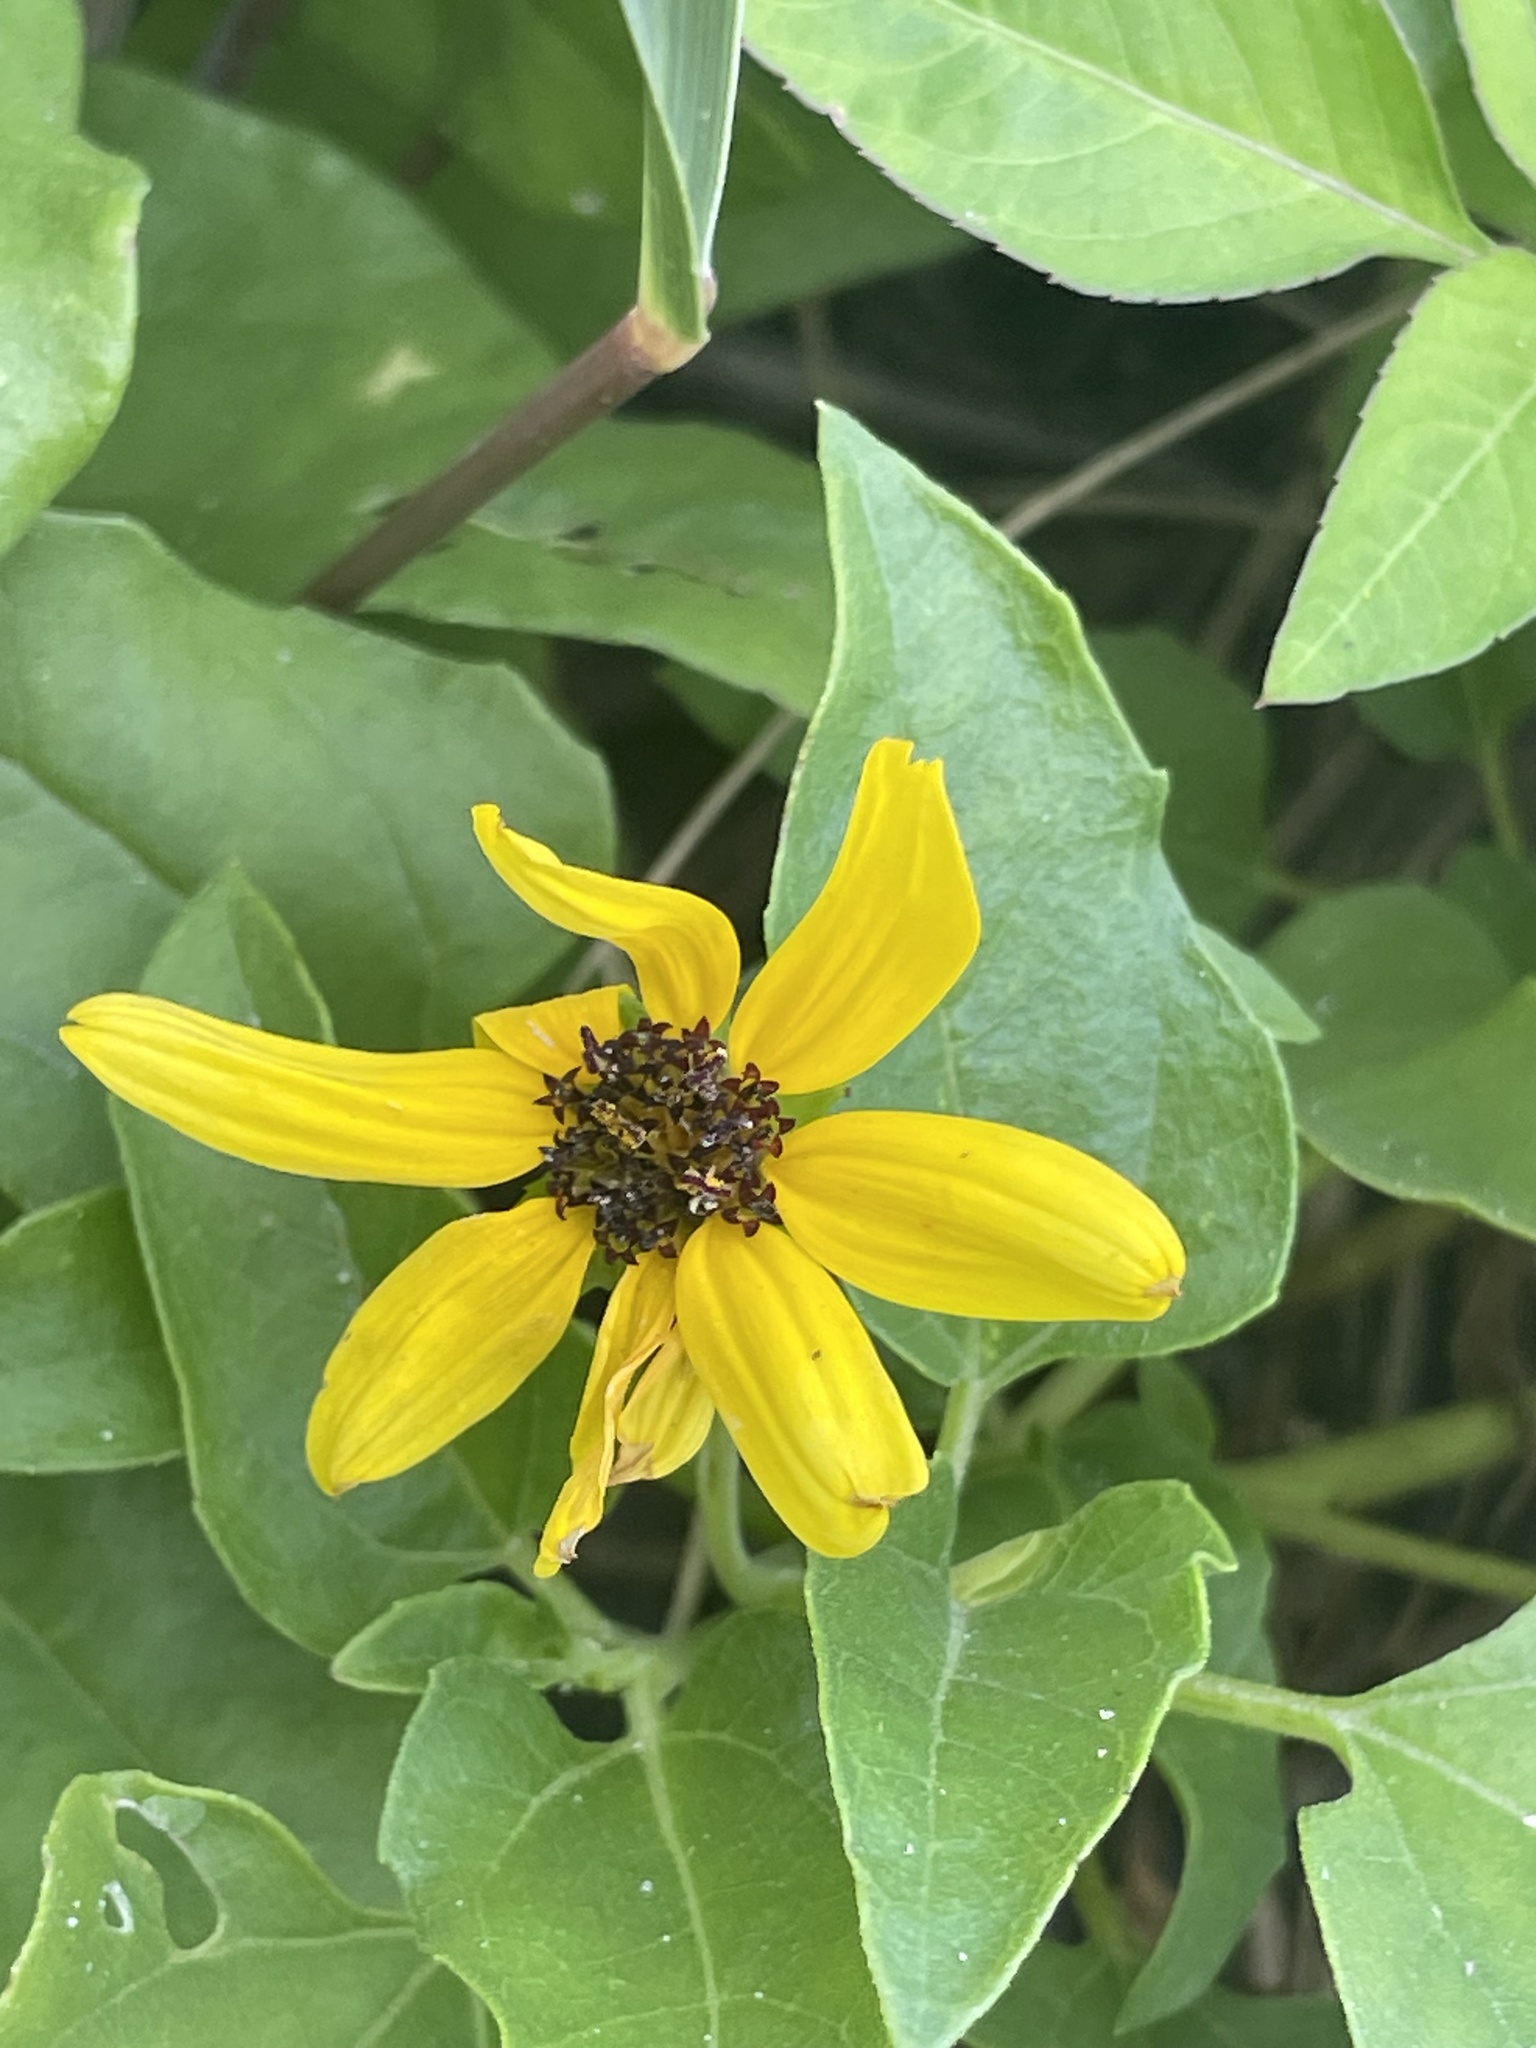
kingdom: Plantae
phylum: Tracheophyta
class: Magnoliopsida
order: Asterales
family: Asteraceae
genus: Helianthus
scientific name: Helianthus debilis
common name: Weak sunflower
